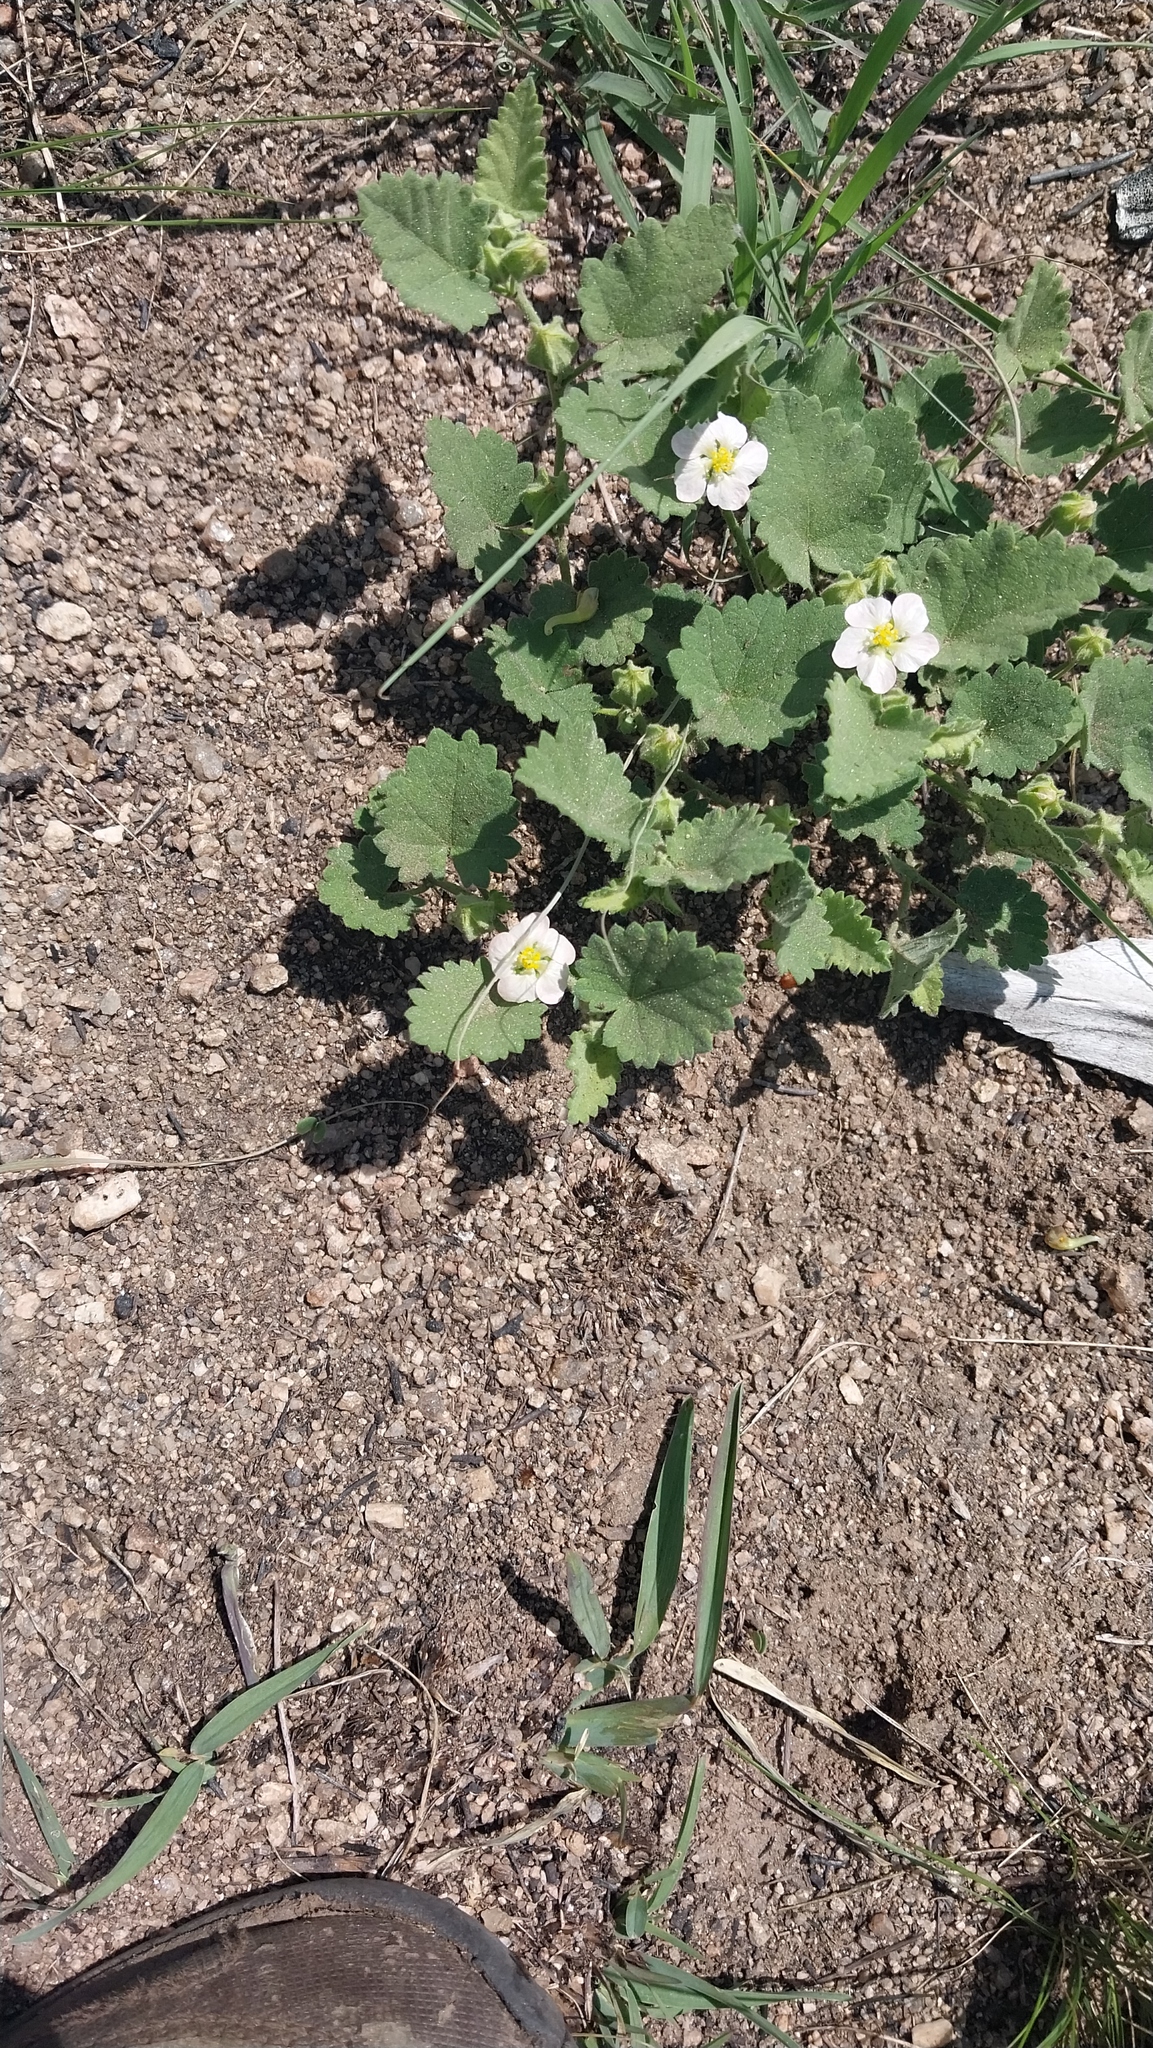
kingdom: Plantae
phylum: Tracheophyta
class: Magnoliopsida
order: Malvales
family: Malvaceae
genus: Krapovickasia
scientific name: Krapovickasia flavescens
